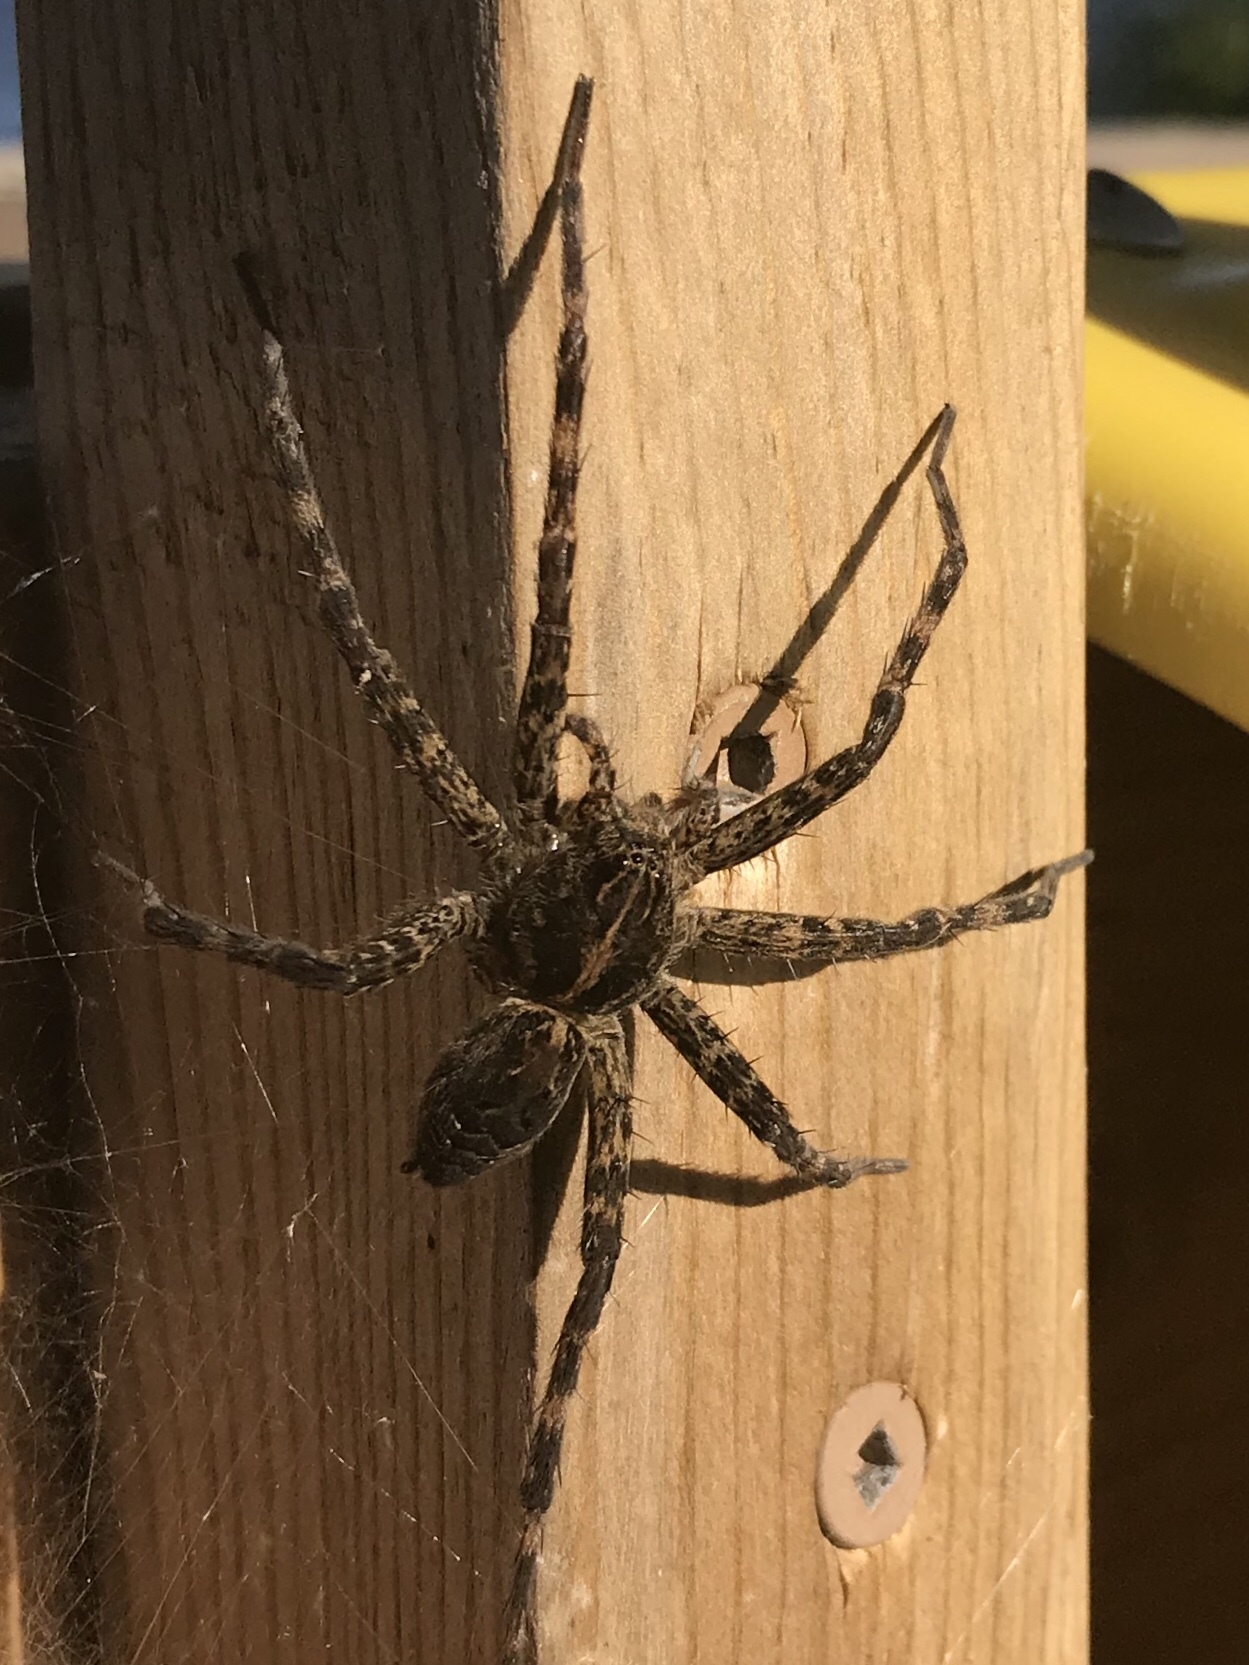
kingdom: Animalia
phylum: Arthropoda
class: Arachnida
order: Araneae
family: Pisauridae
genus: Dolomedes
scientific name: Dolomedes scriptus
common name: Striped fishing spider
